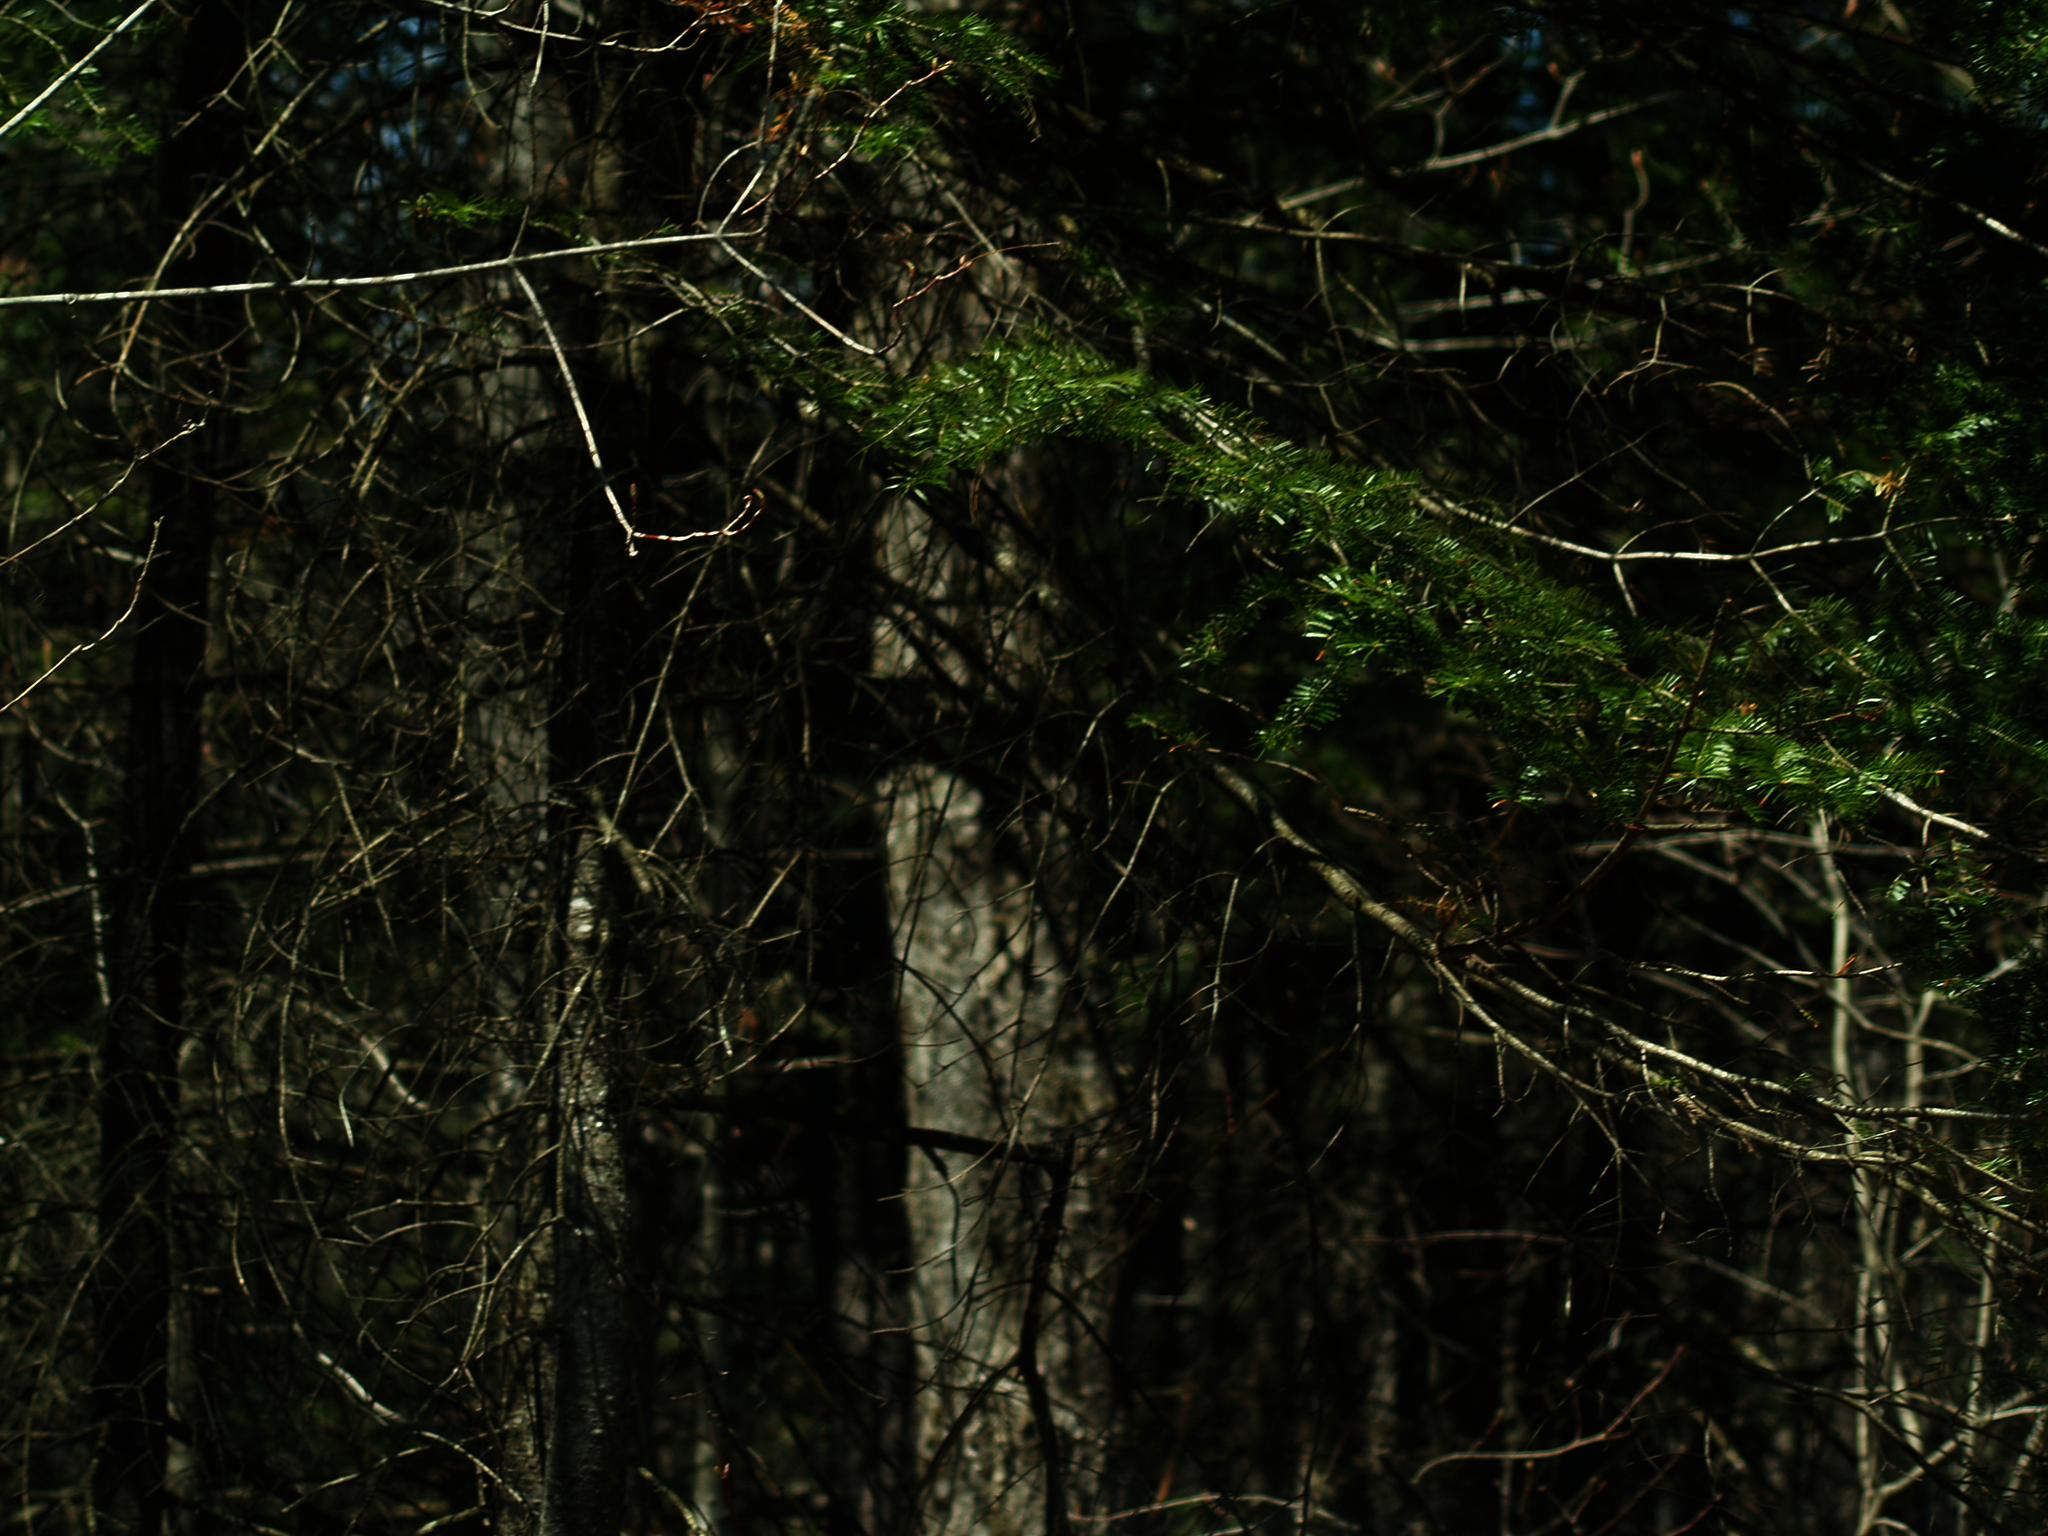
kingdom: Plantae
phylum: Tracheophyta
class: Pinopsida
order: Pinales
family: Pinaceae
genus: Abies
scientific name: Abies balsamea
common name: Balsam fir
